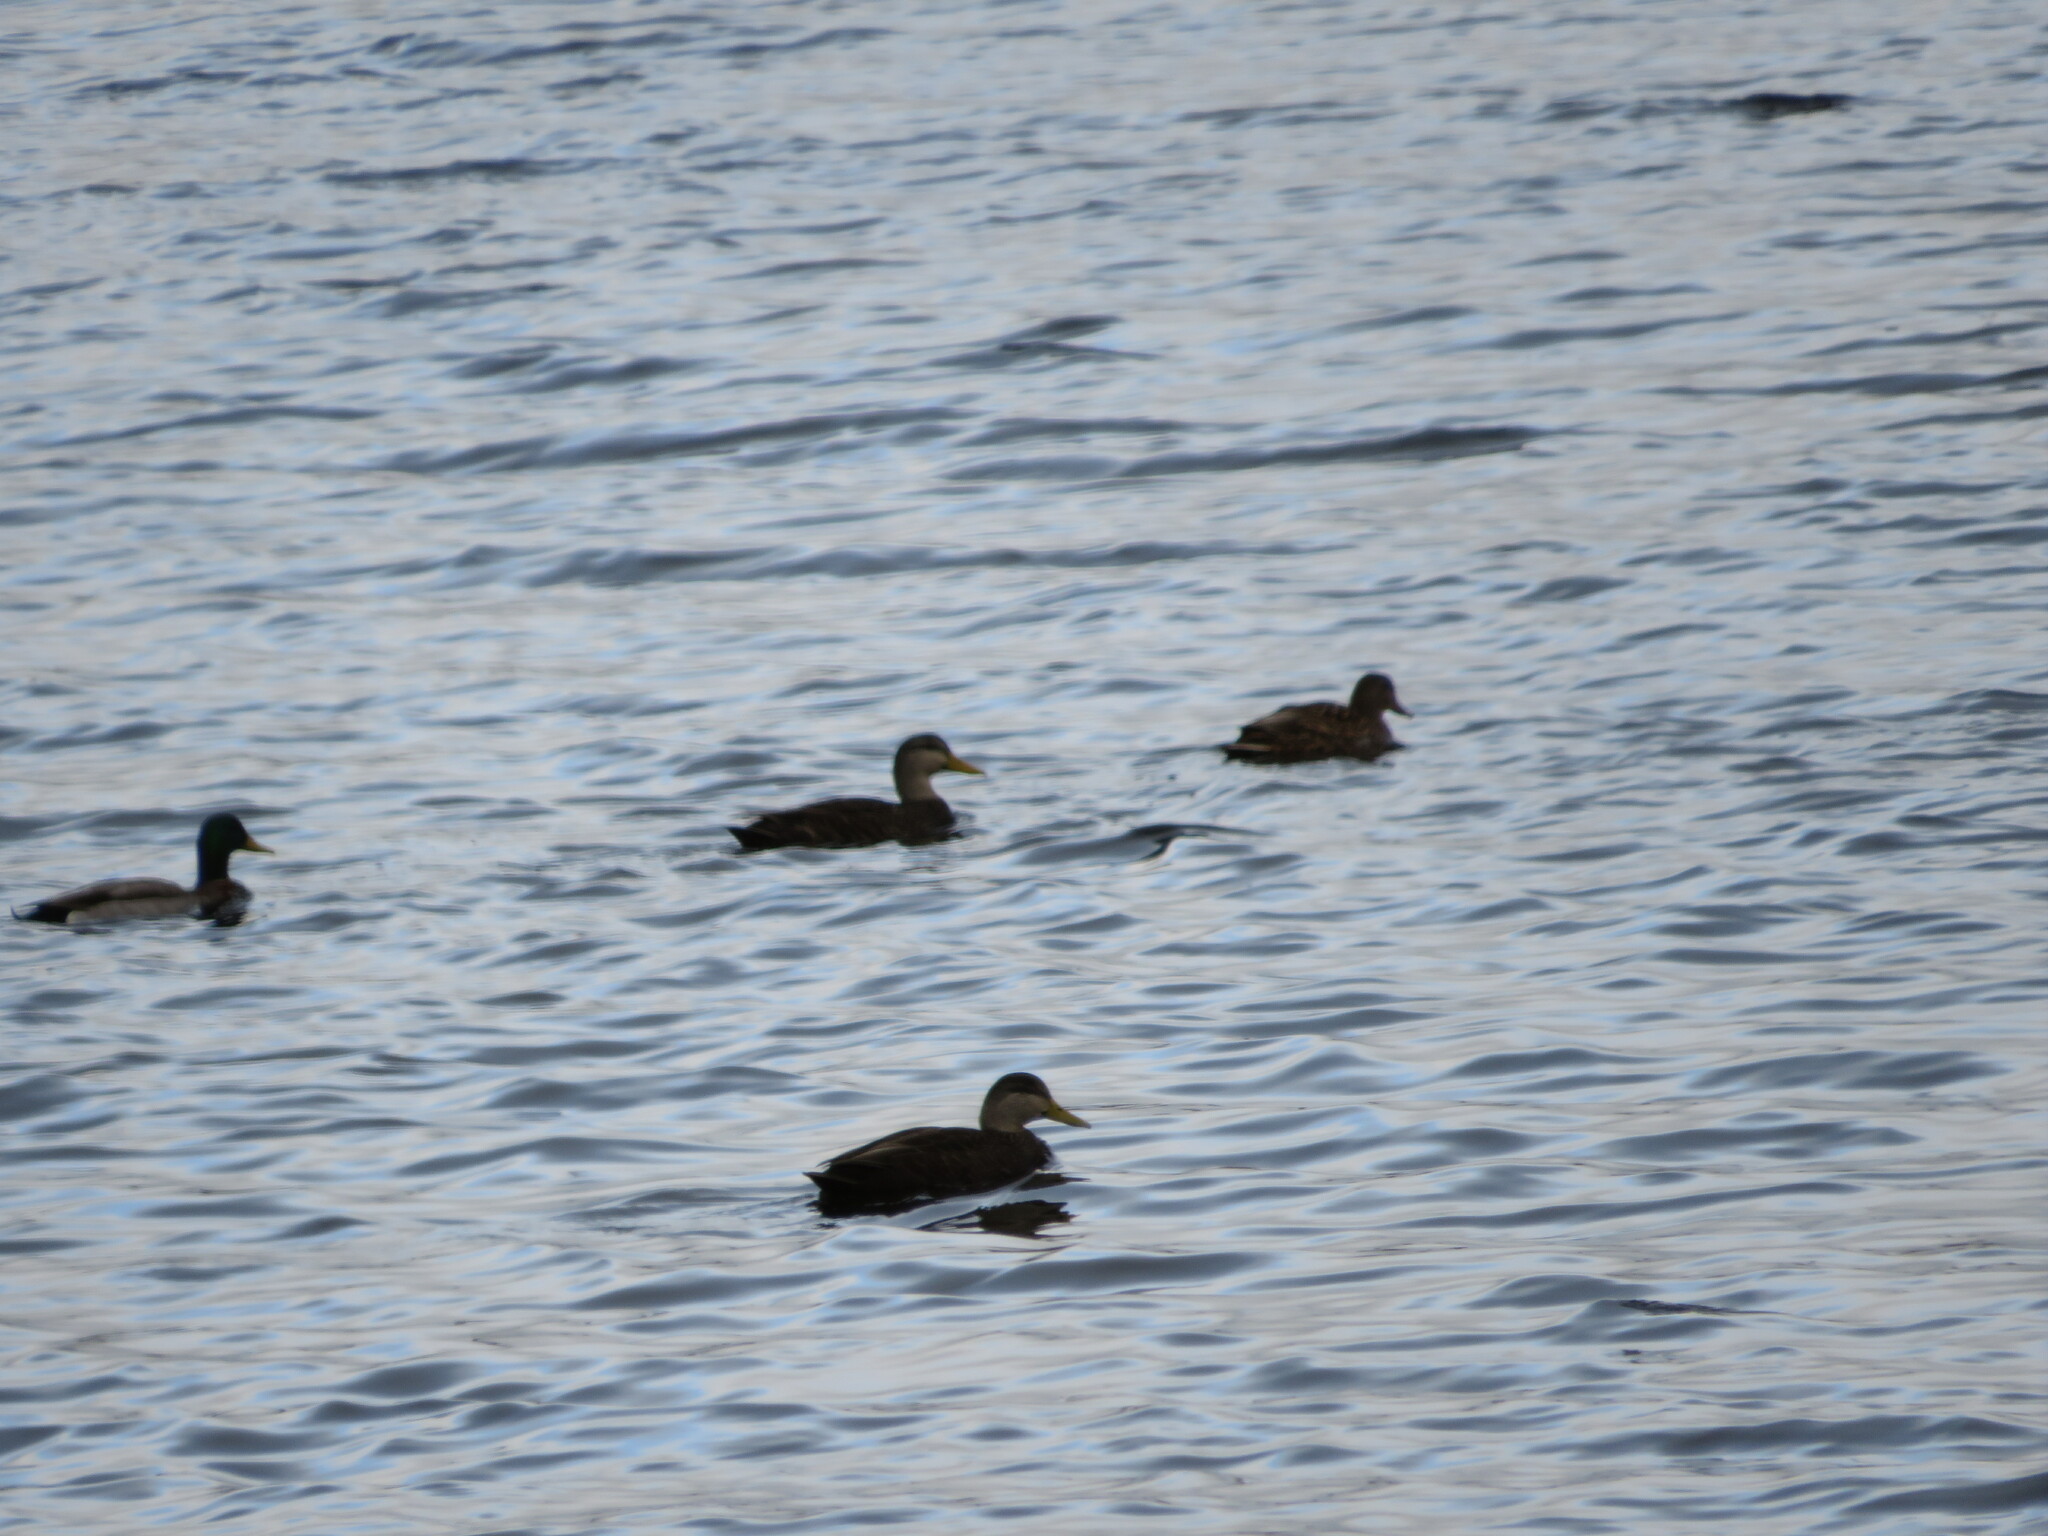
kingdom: Animalia
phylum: Chordata
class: Aves
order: Anseriformes
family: Anatidae
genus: Anas
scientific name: Anas rubripes
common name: American black duck
